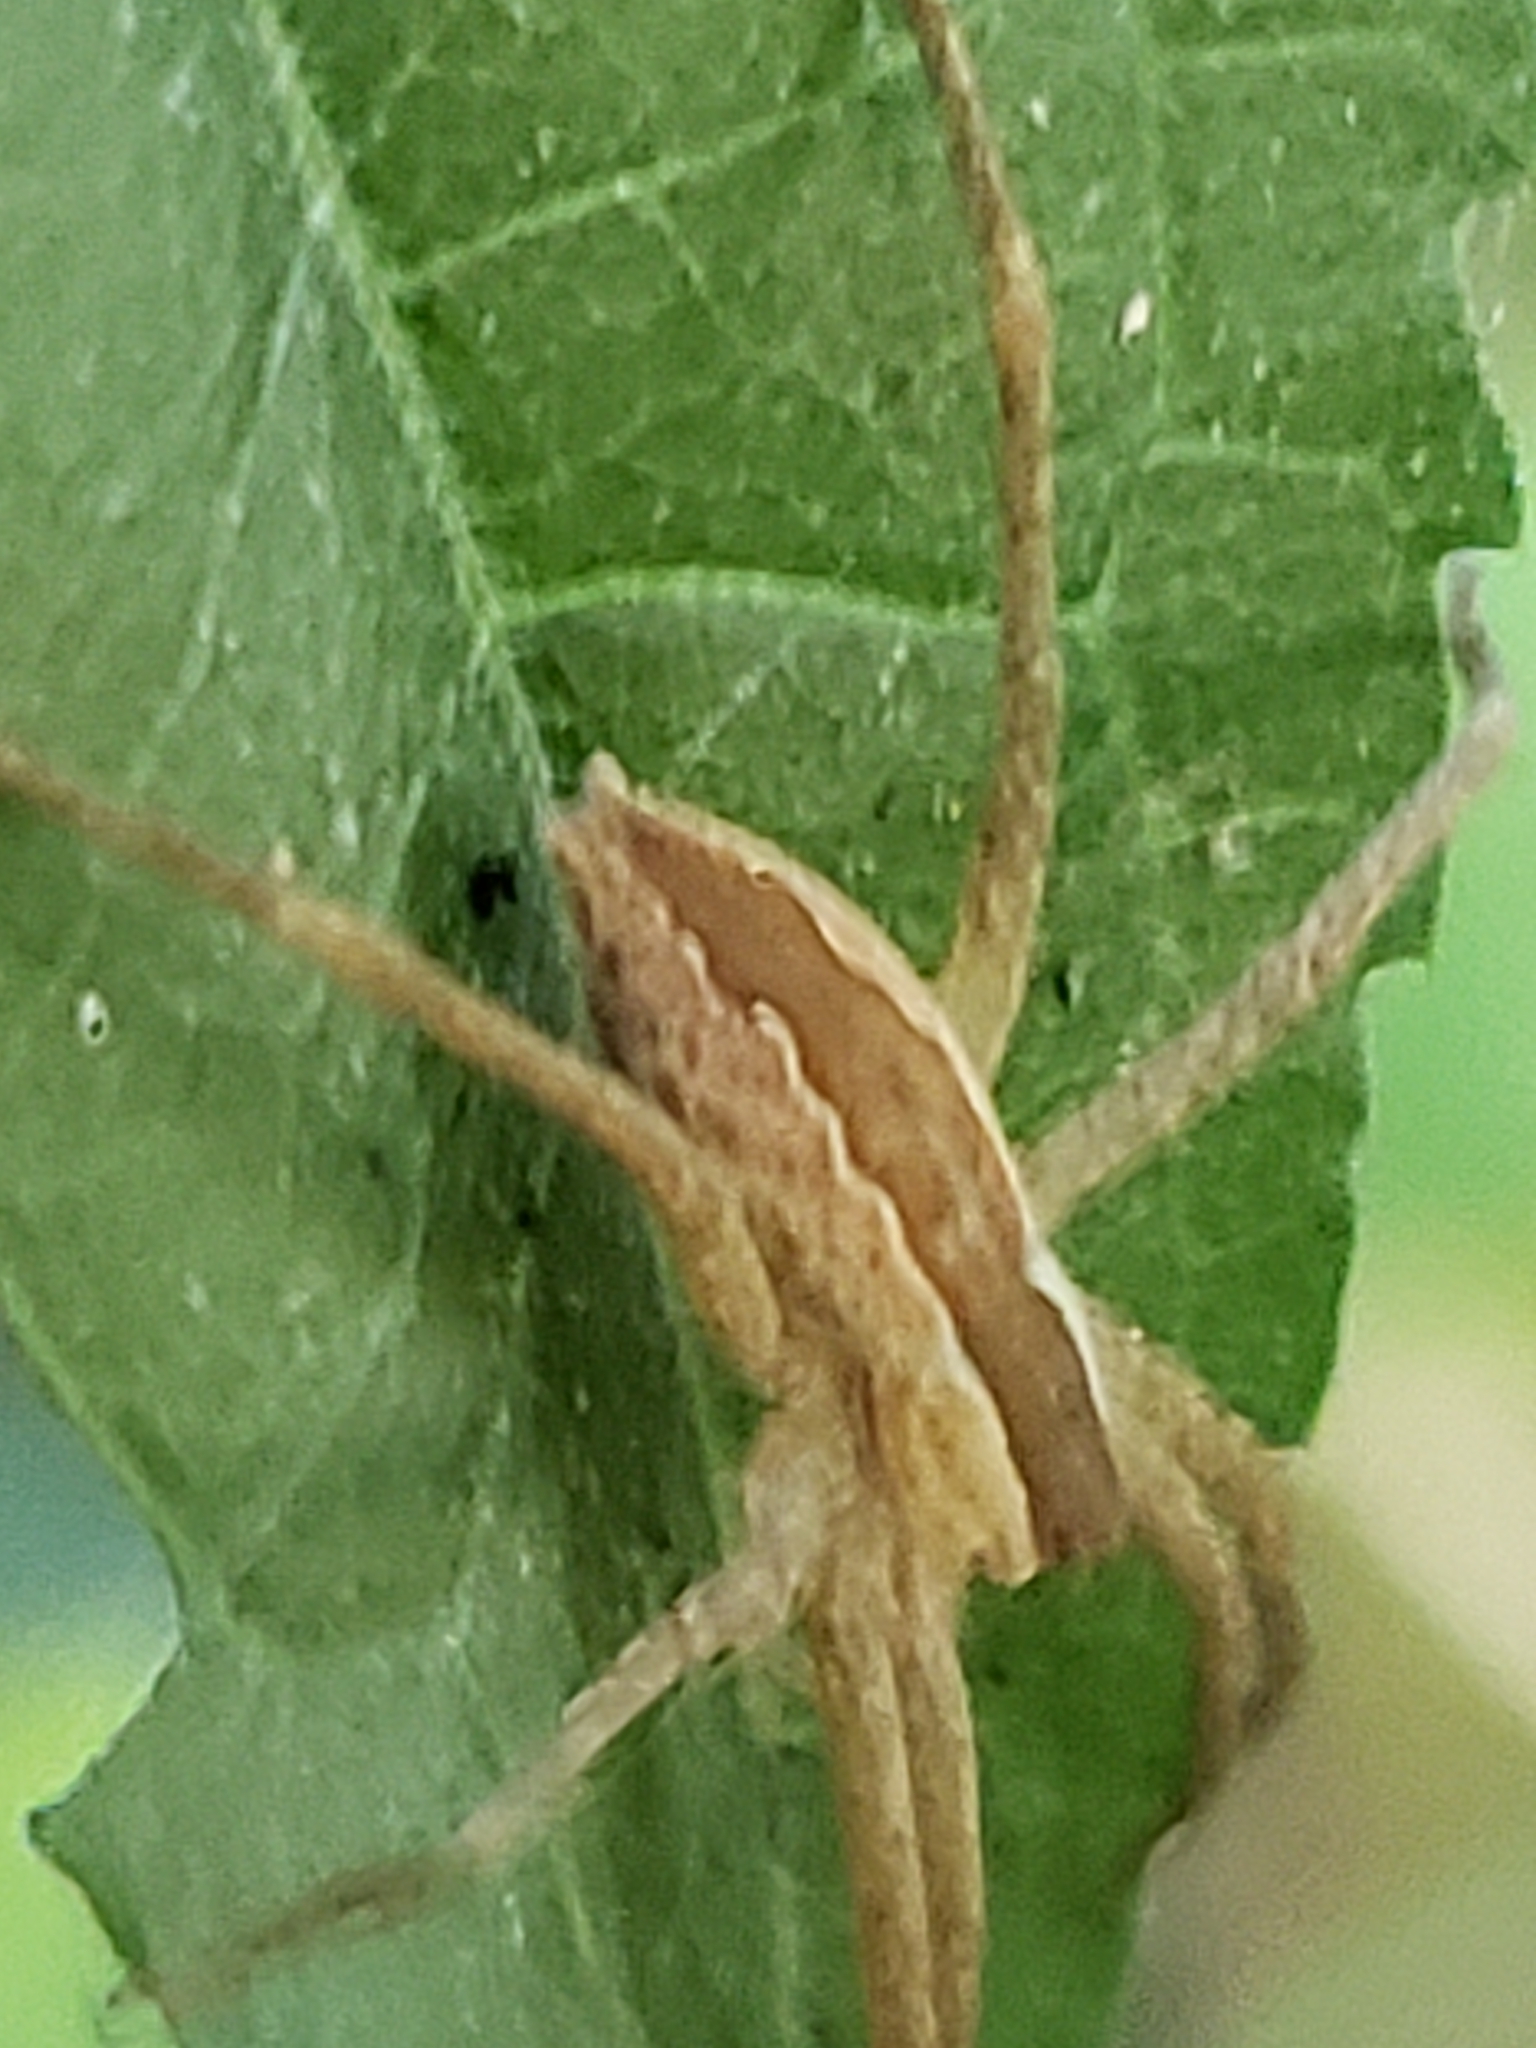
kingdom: Animalia
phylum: Arthropoda
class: Arachnida
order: Araneae
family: Pisauridae
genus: Pisaurina
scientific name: Pisaurina mira
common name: American nursery web spider
